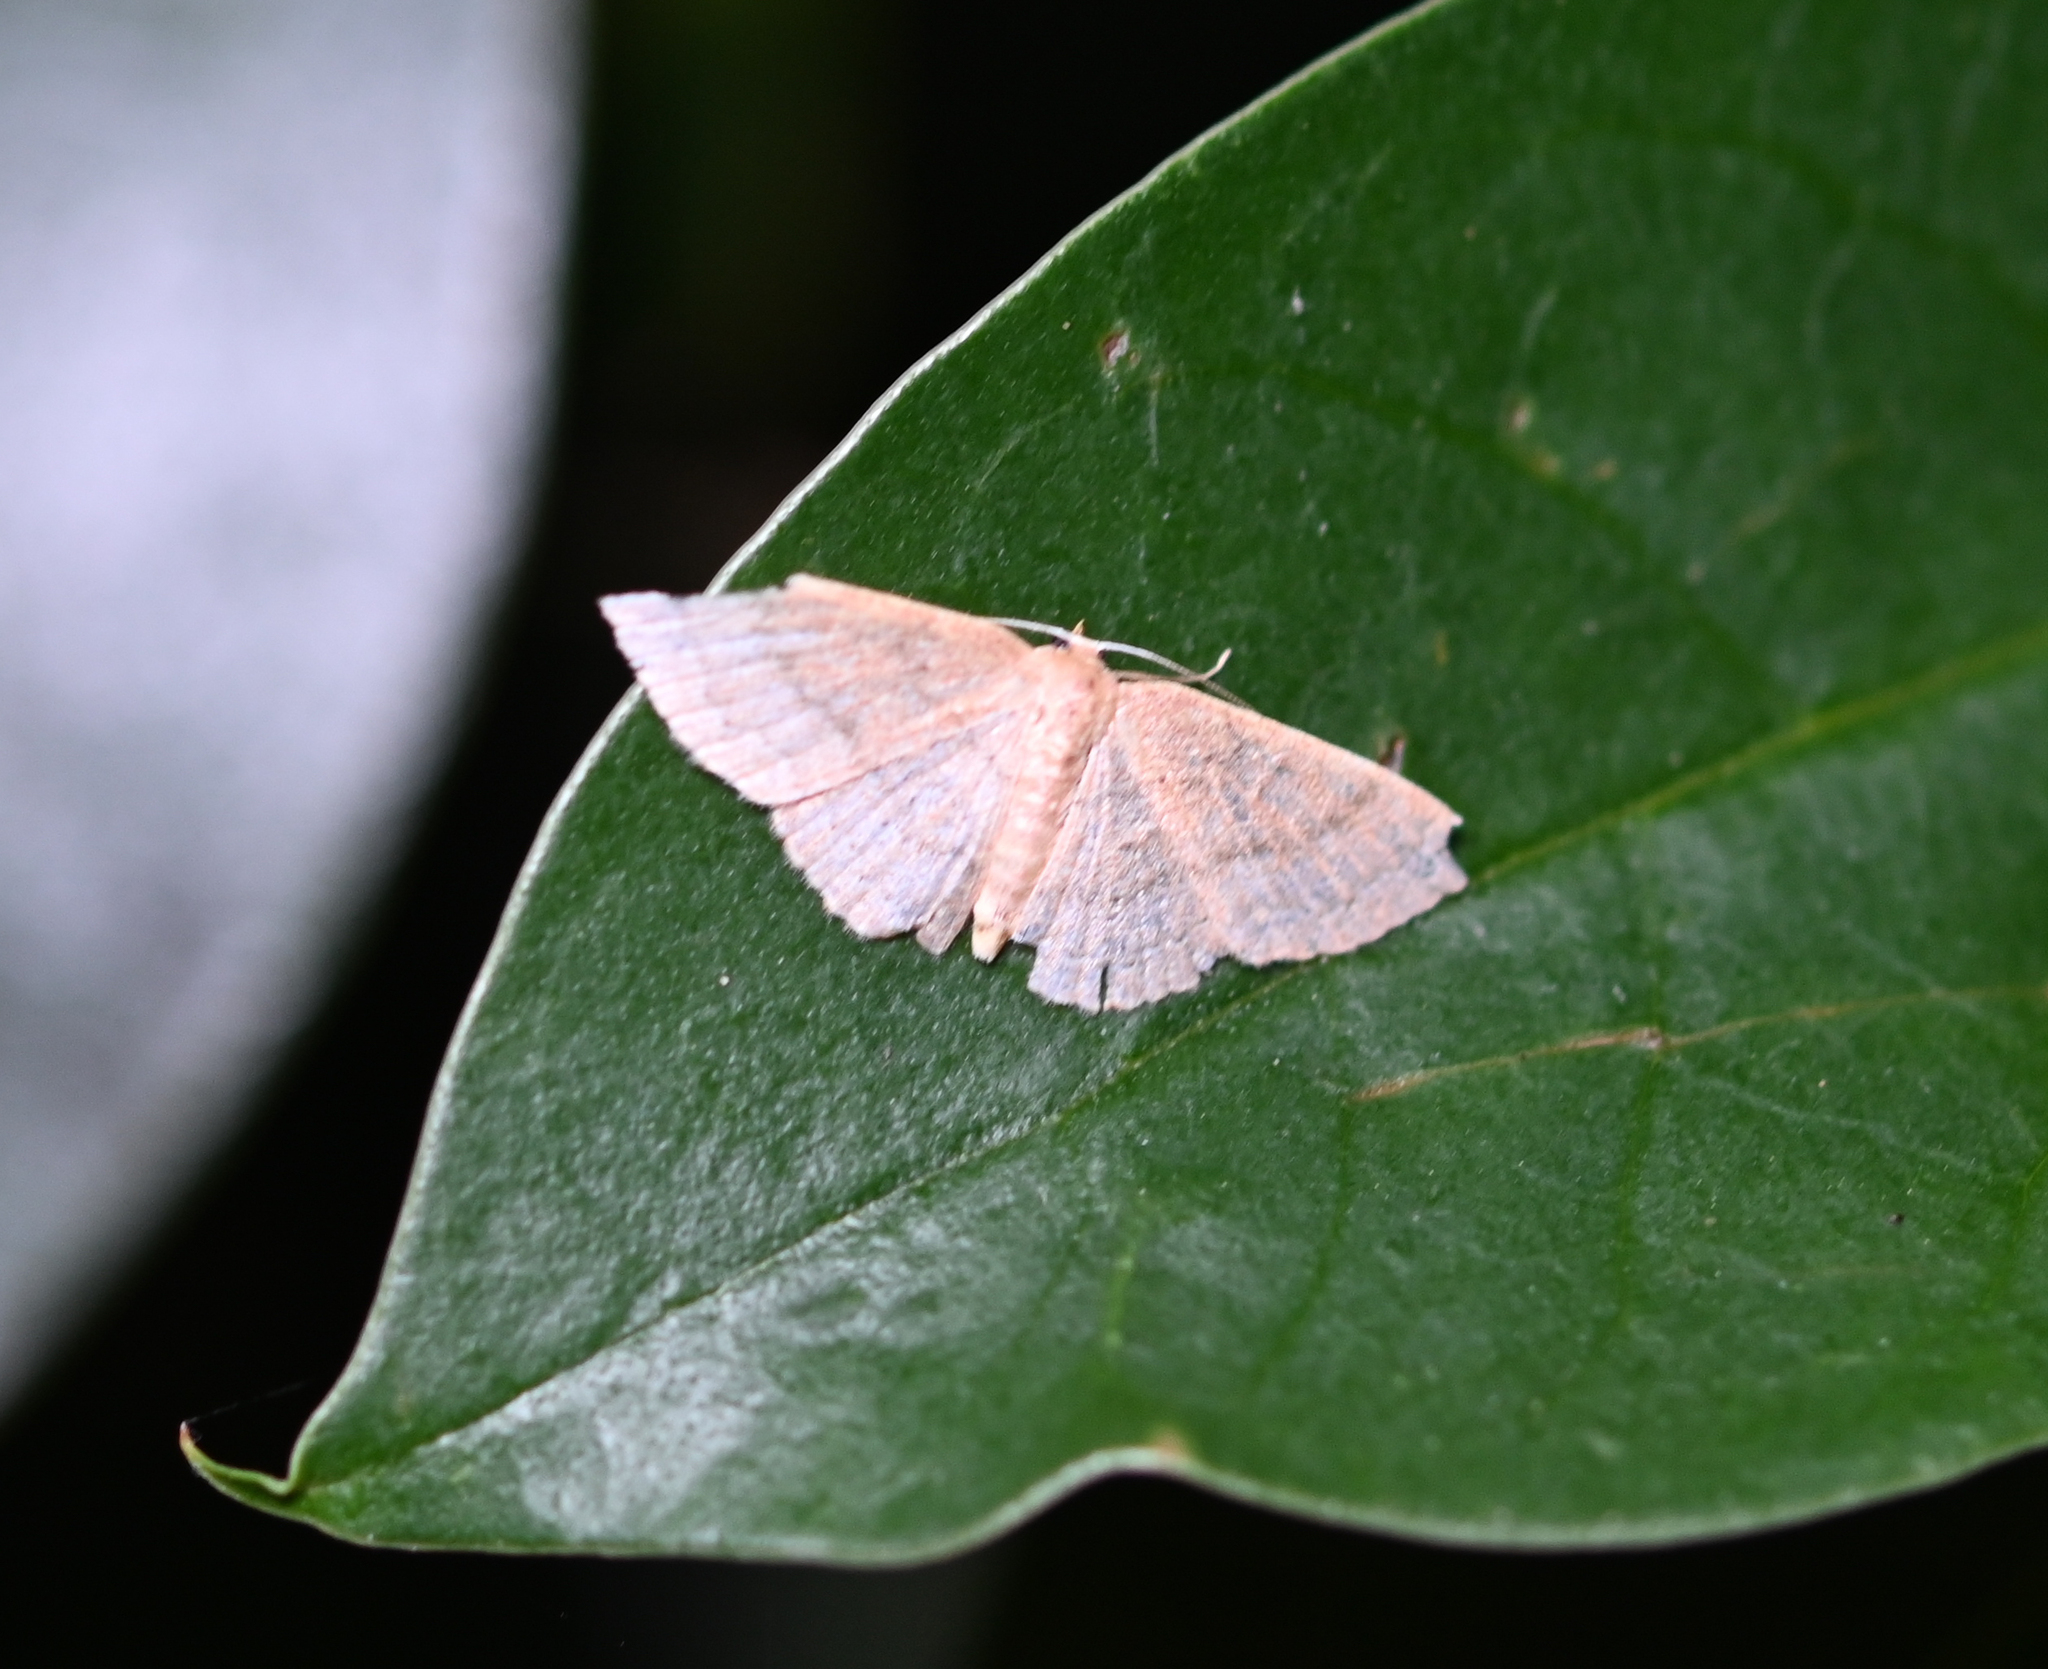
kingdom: Animalia
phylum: Arthropoda
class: Insecta
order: Lepidoptera
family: Geometridae
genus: Pleuroprucha
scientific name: Pleuroprucha insulsaria
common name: Common tan wave
